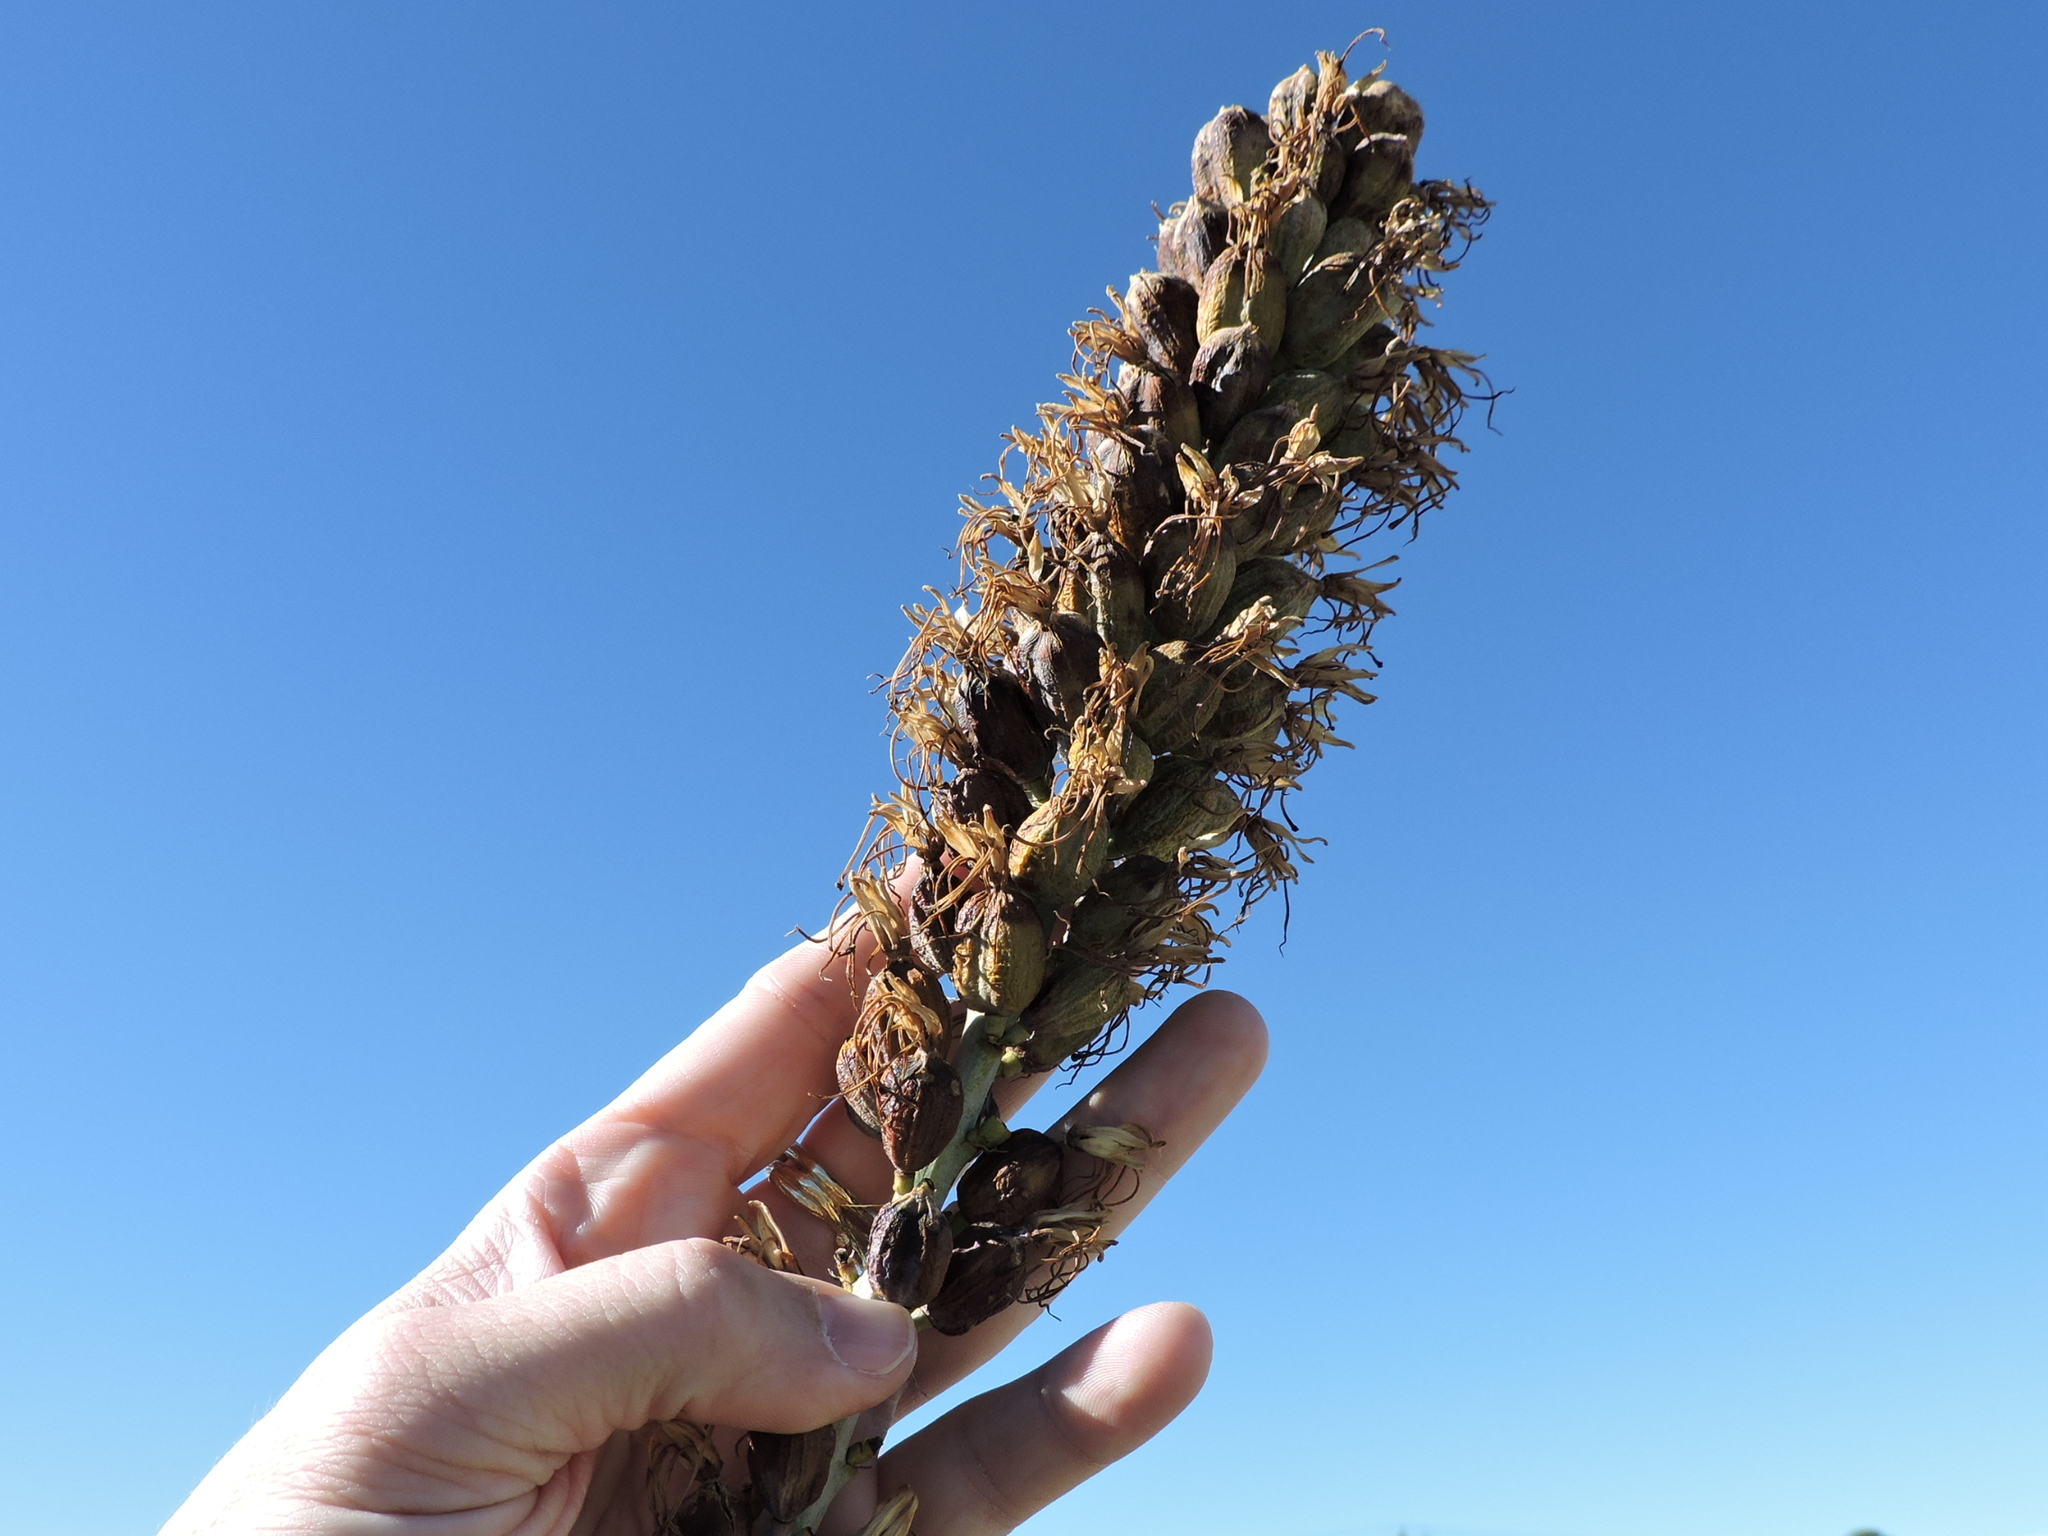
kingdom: Plantae
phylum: Tracheophyta
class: Liliopsida
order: Asparagales
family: Asparagaceae
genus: Agave
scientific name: Agave lechuguilla
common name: Lecheguilla agave
